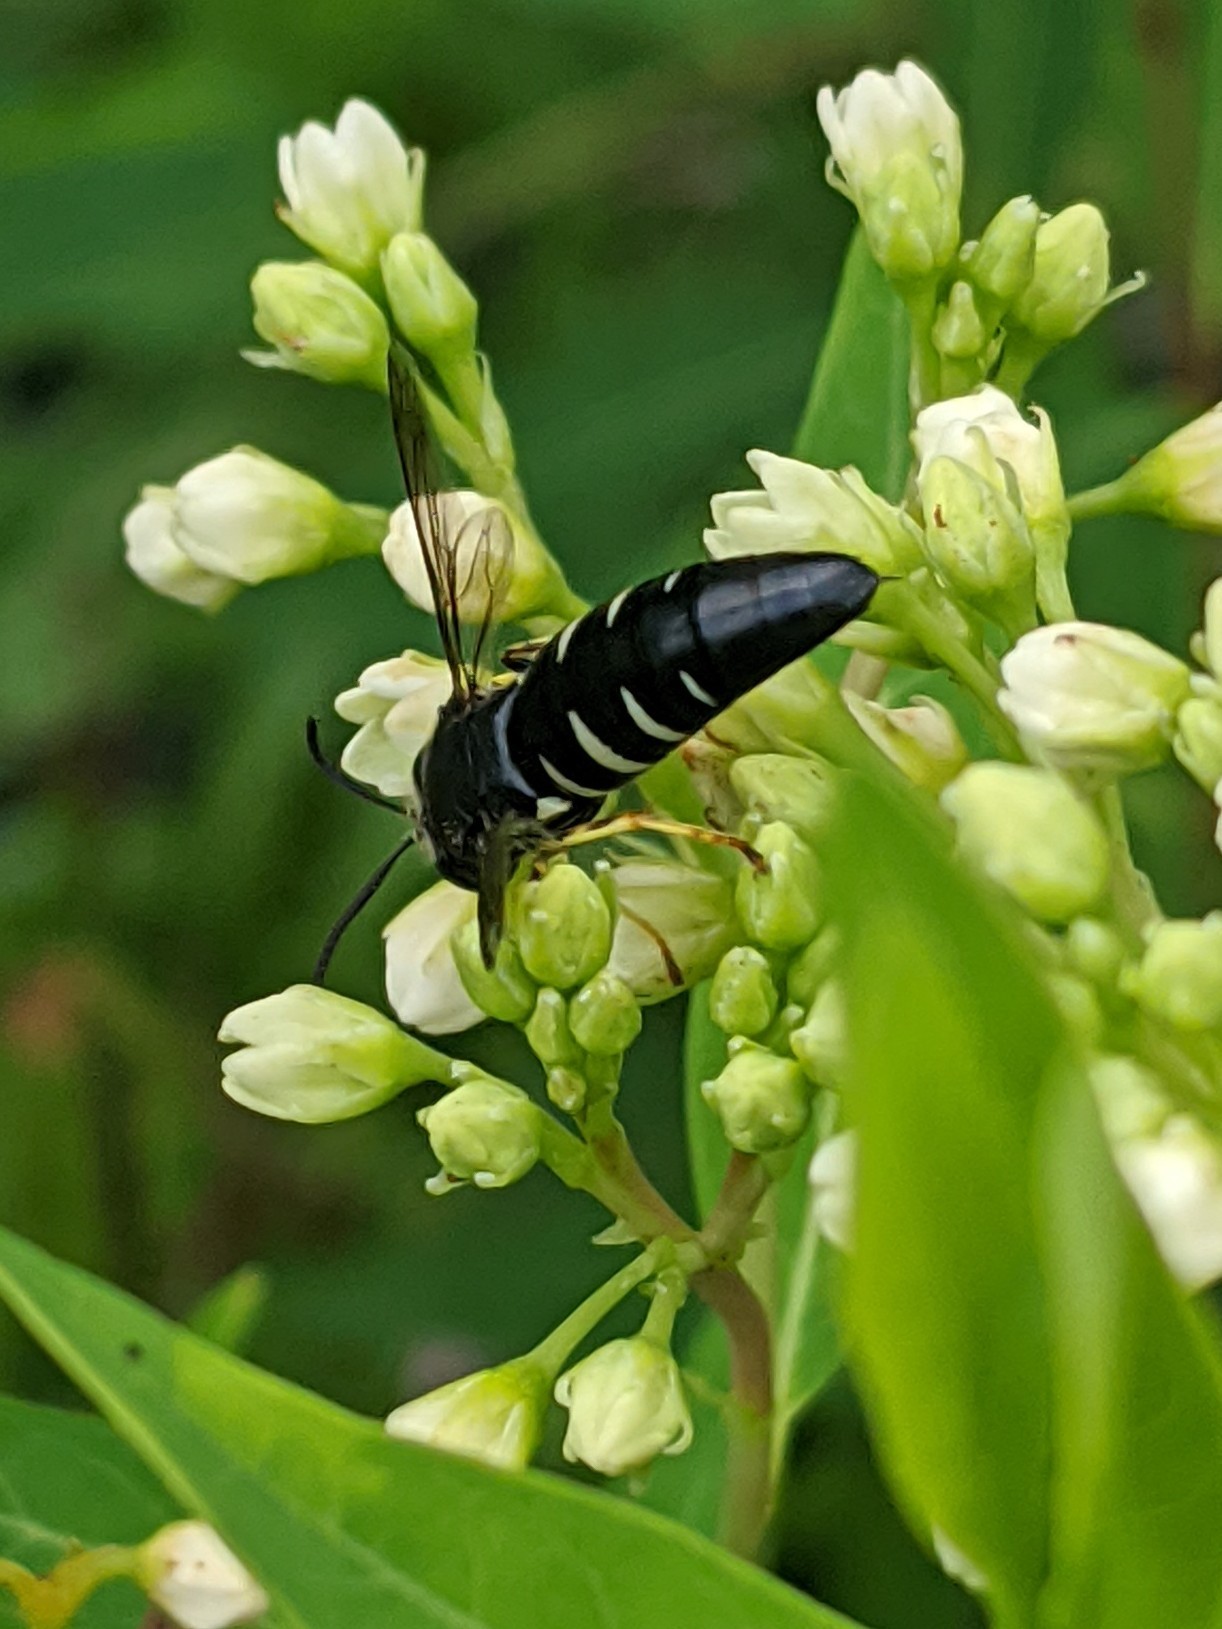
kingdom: Animalia
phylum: Arthropoda
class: Insecta
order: Hymenoptera
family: Crabronidae
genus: Bicyrtes
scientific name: Bicyrtes quadrifasciatus
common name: Four-banded stink bug hunter wasp
